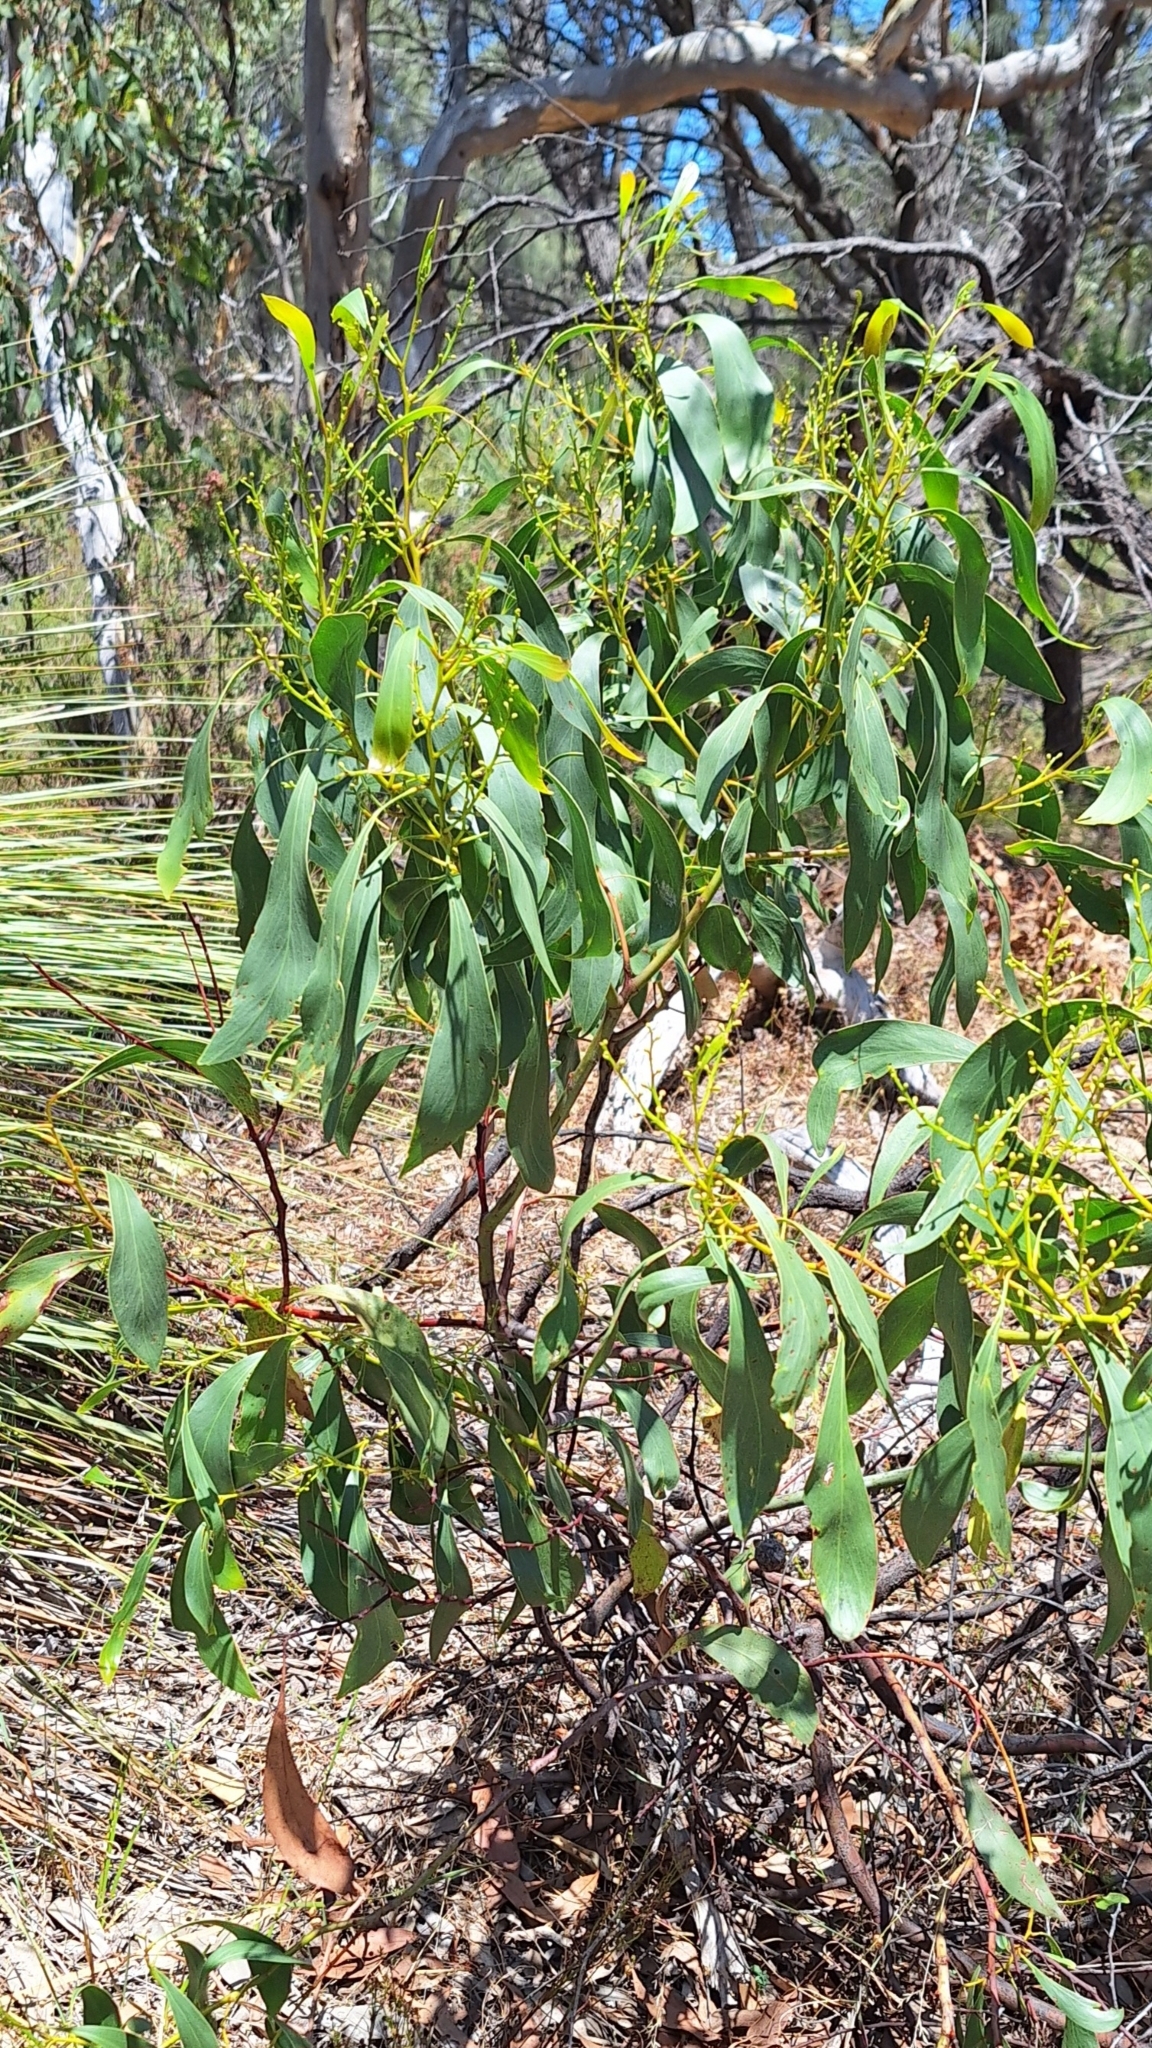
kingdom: Plantae
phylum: Tracheophyta
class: Magnoliopsida
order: Fabales
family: Fabaceae
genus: Acacia
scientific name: Acacia pycnantha
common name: Golden wattle
